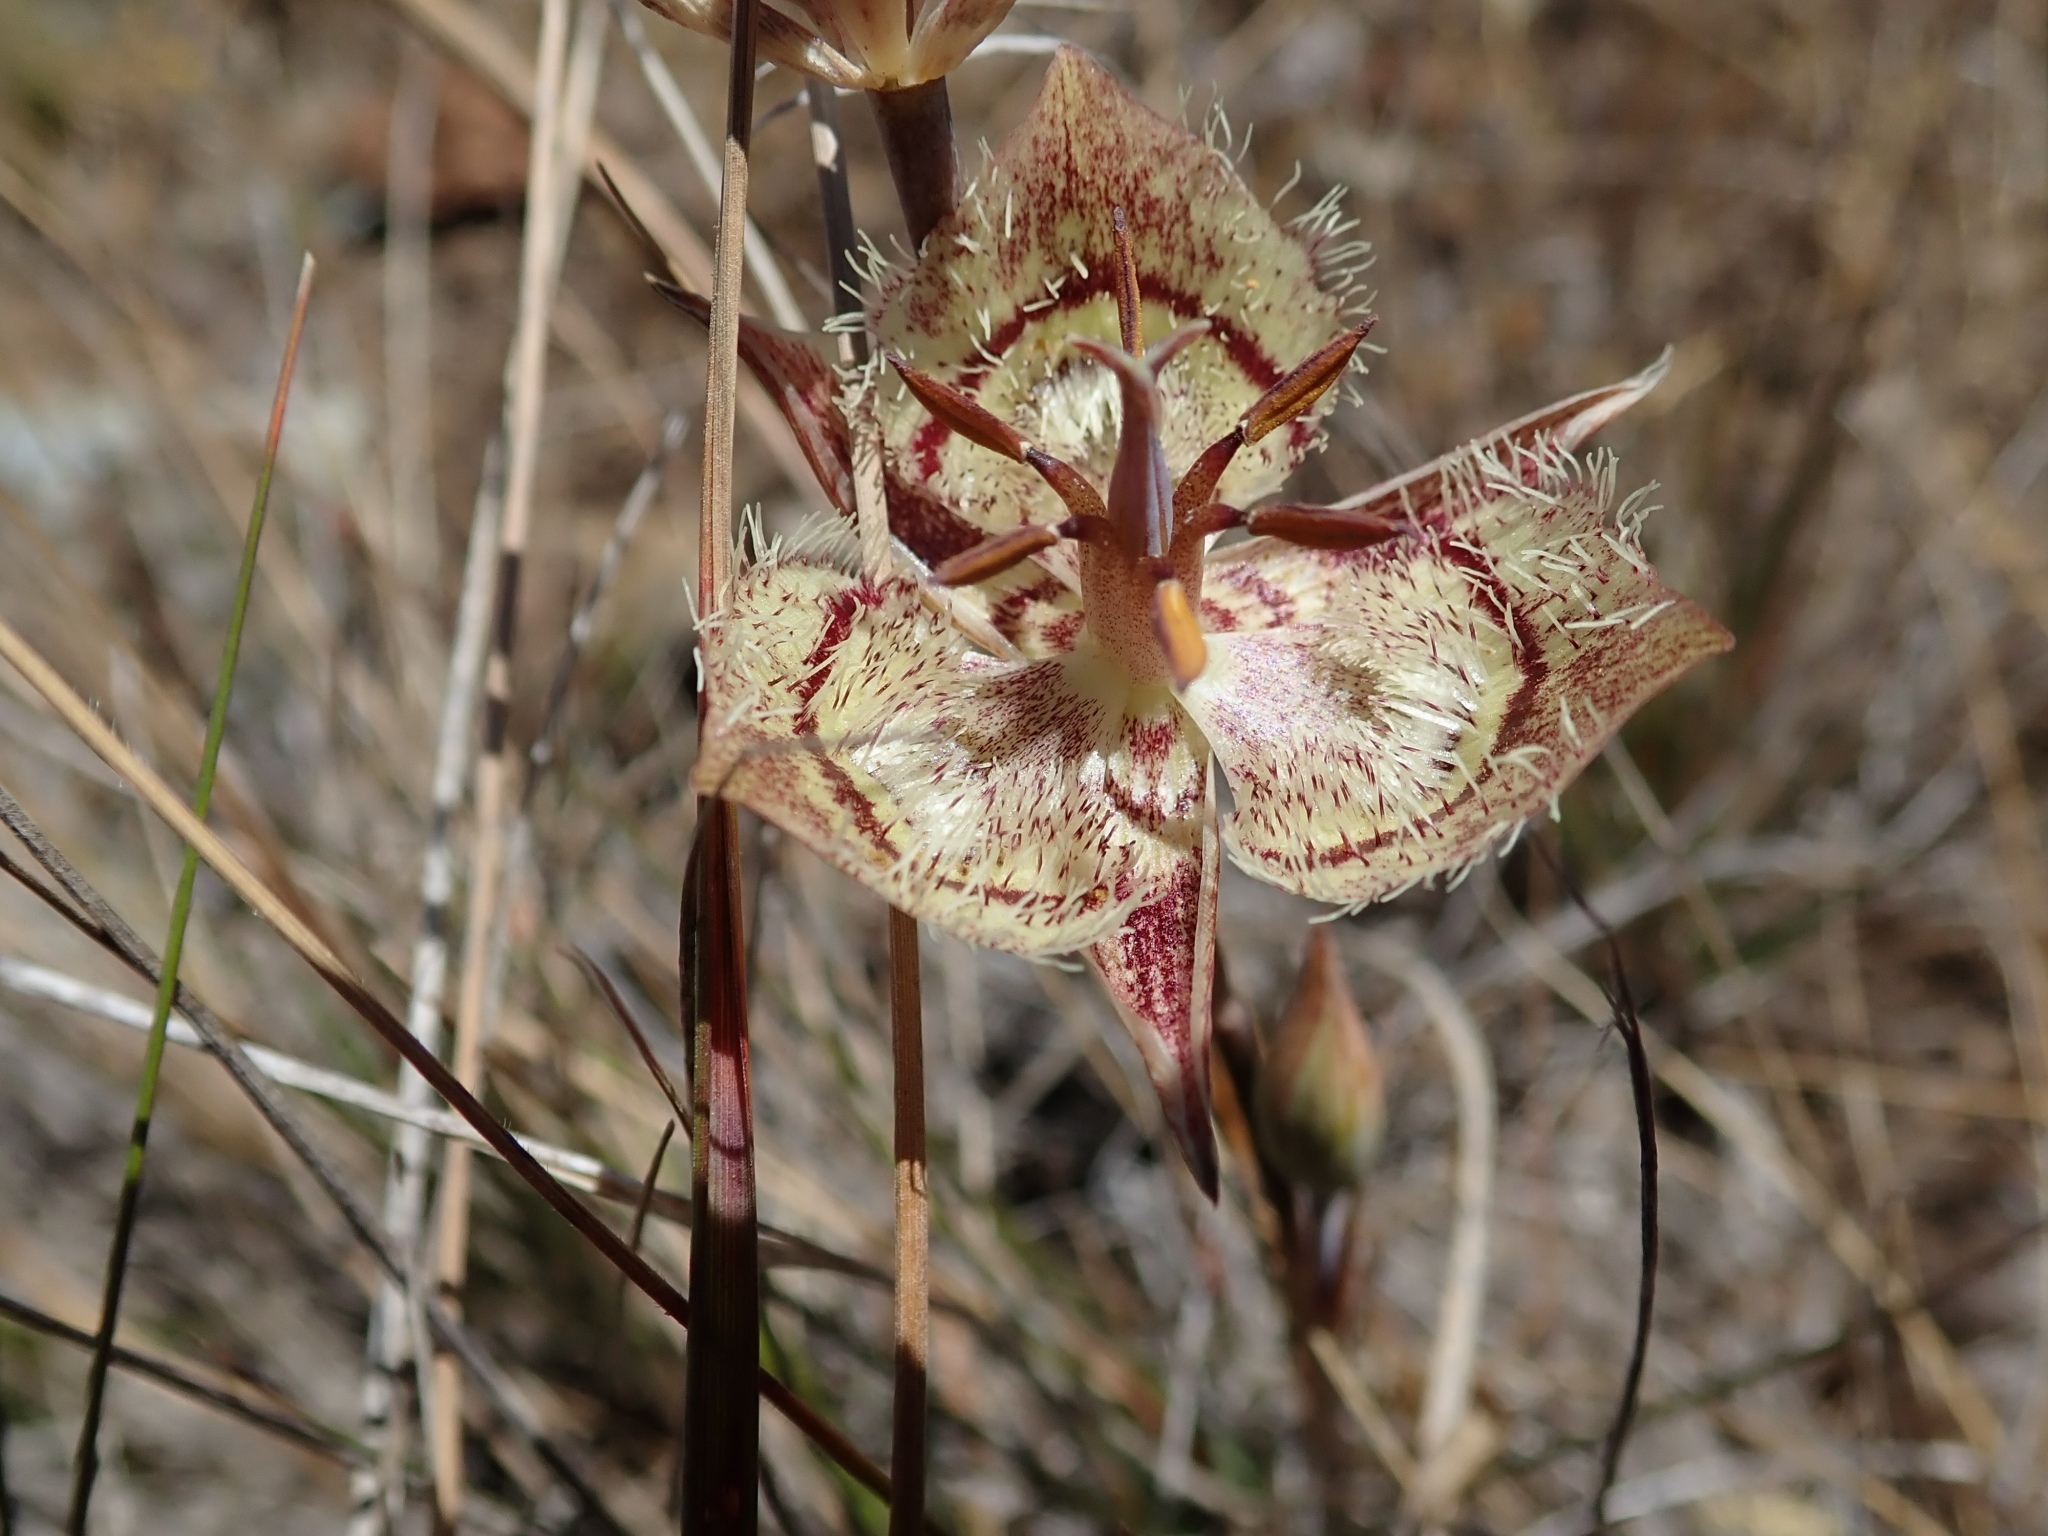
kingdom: Plantae
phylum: Tracheophyta
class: Liliopsida
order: Liliales
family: Liliaceae
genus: Calochortus
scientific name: Calochortus tiburonensis
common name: Tiburon mariposa-lily
